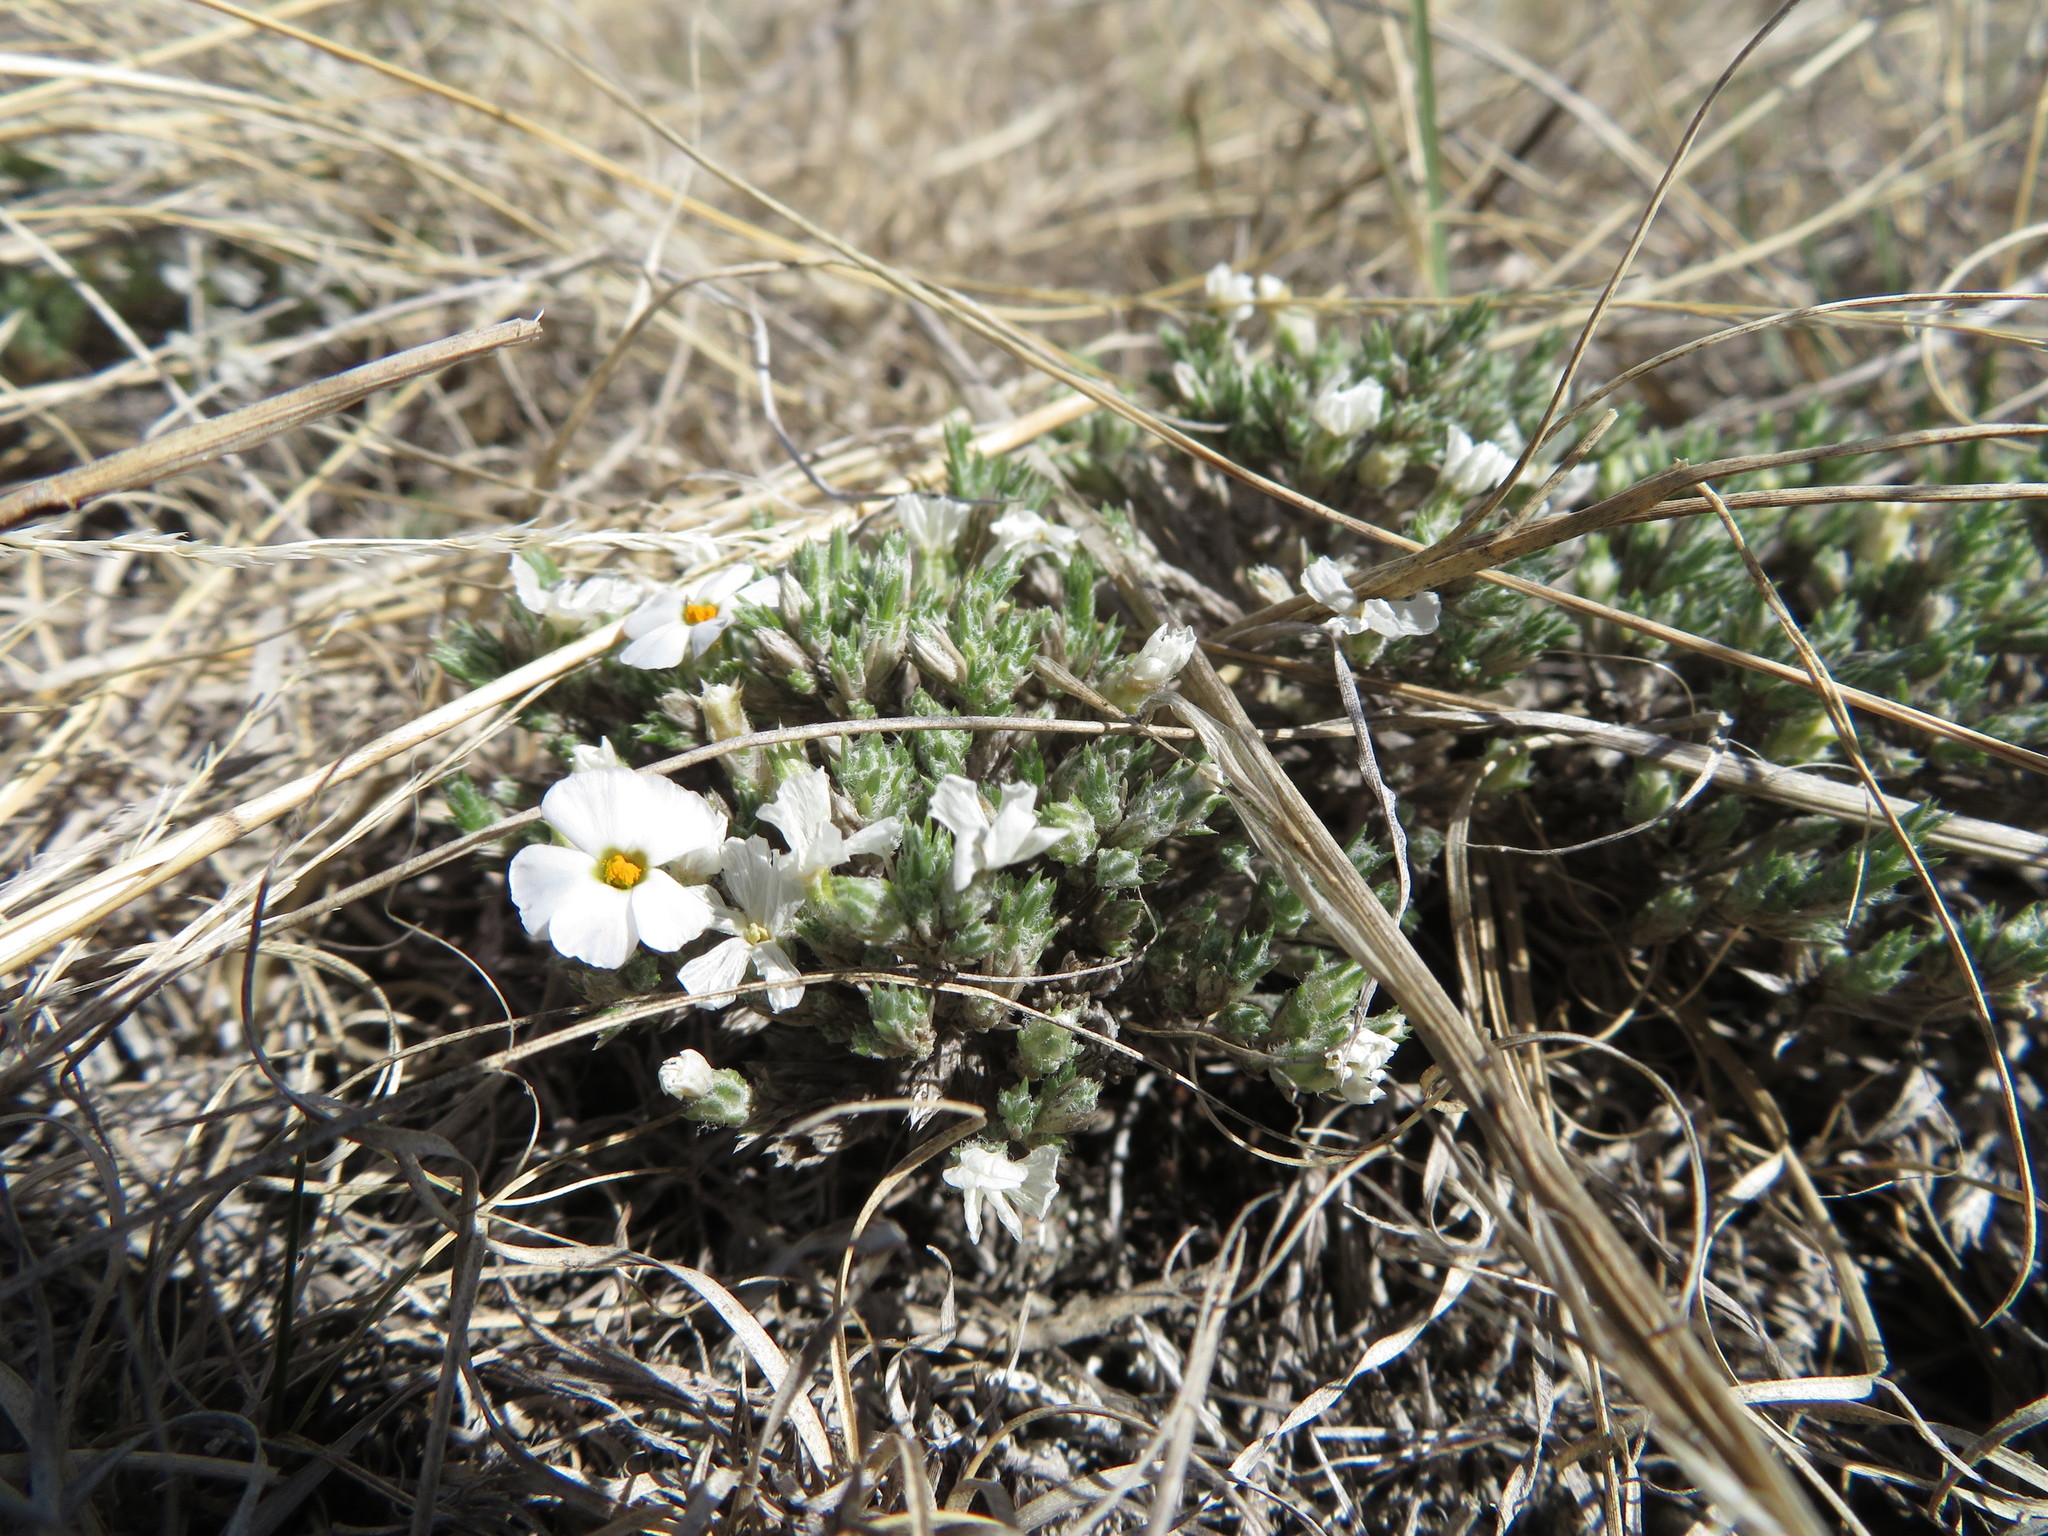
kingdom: Plantae
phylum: Tracheophyta
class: Magnoliopsida
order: Ericales
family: Polemoniaceae
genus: Phlox
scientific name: Phlox hoodii
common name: Moss phlox
